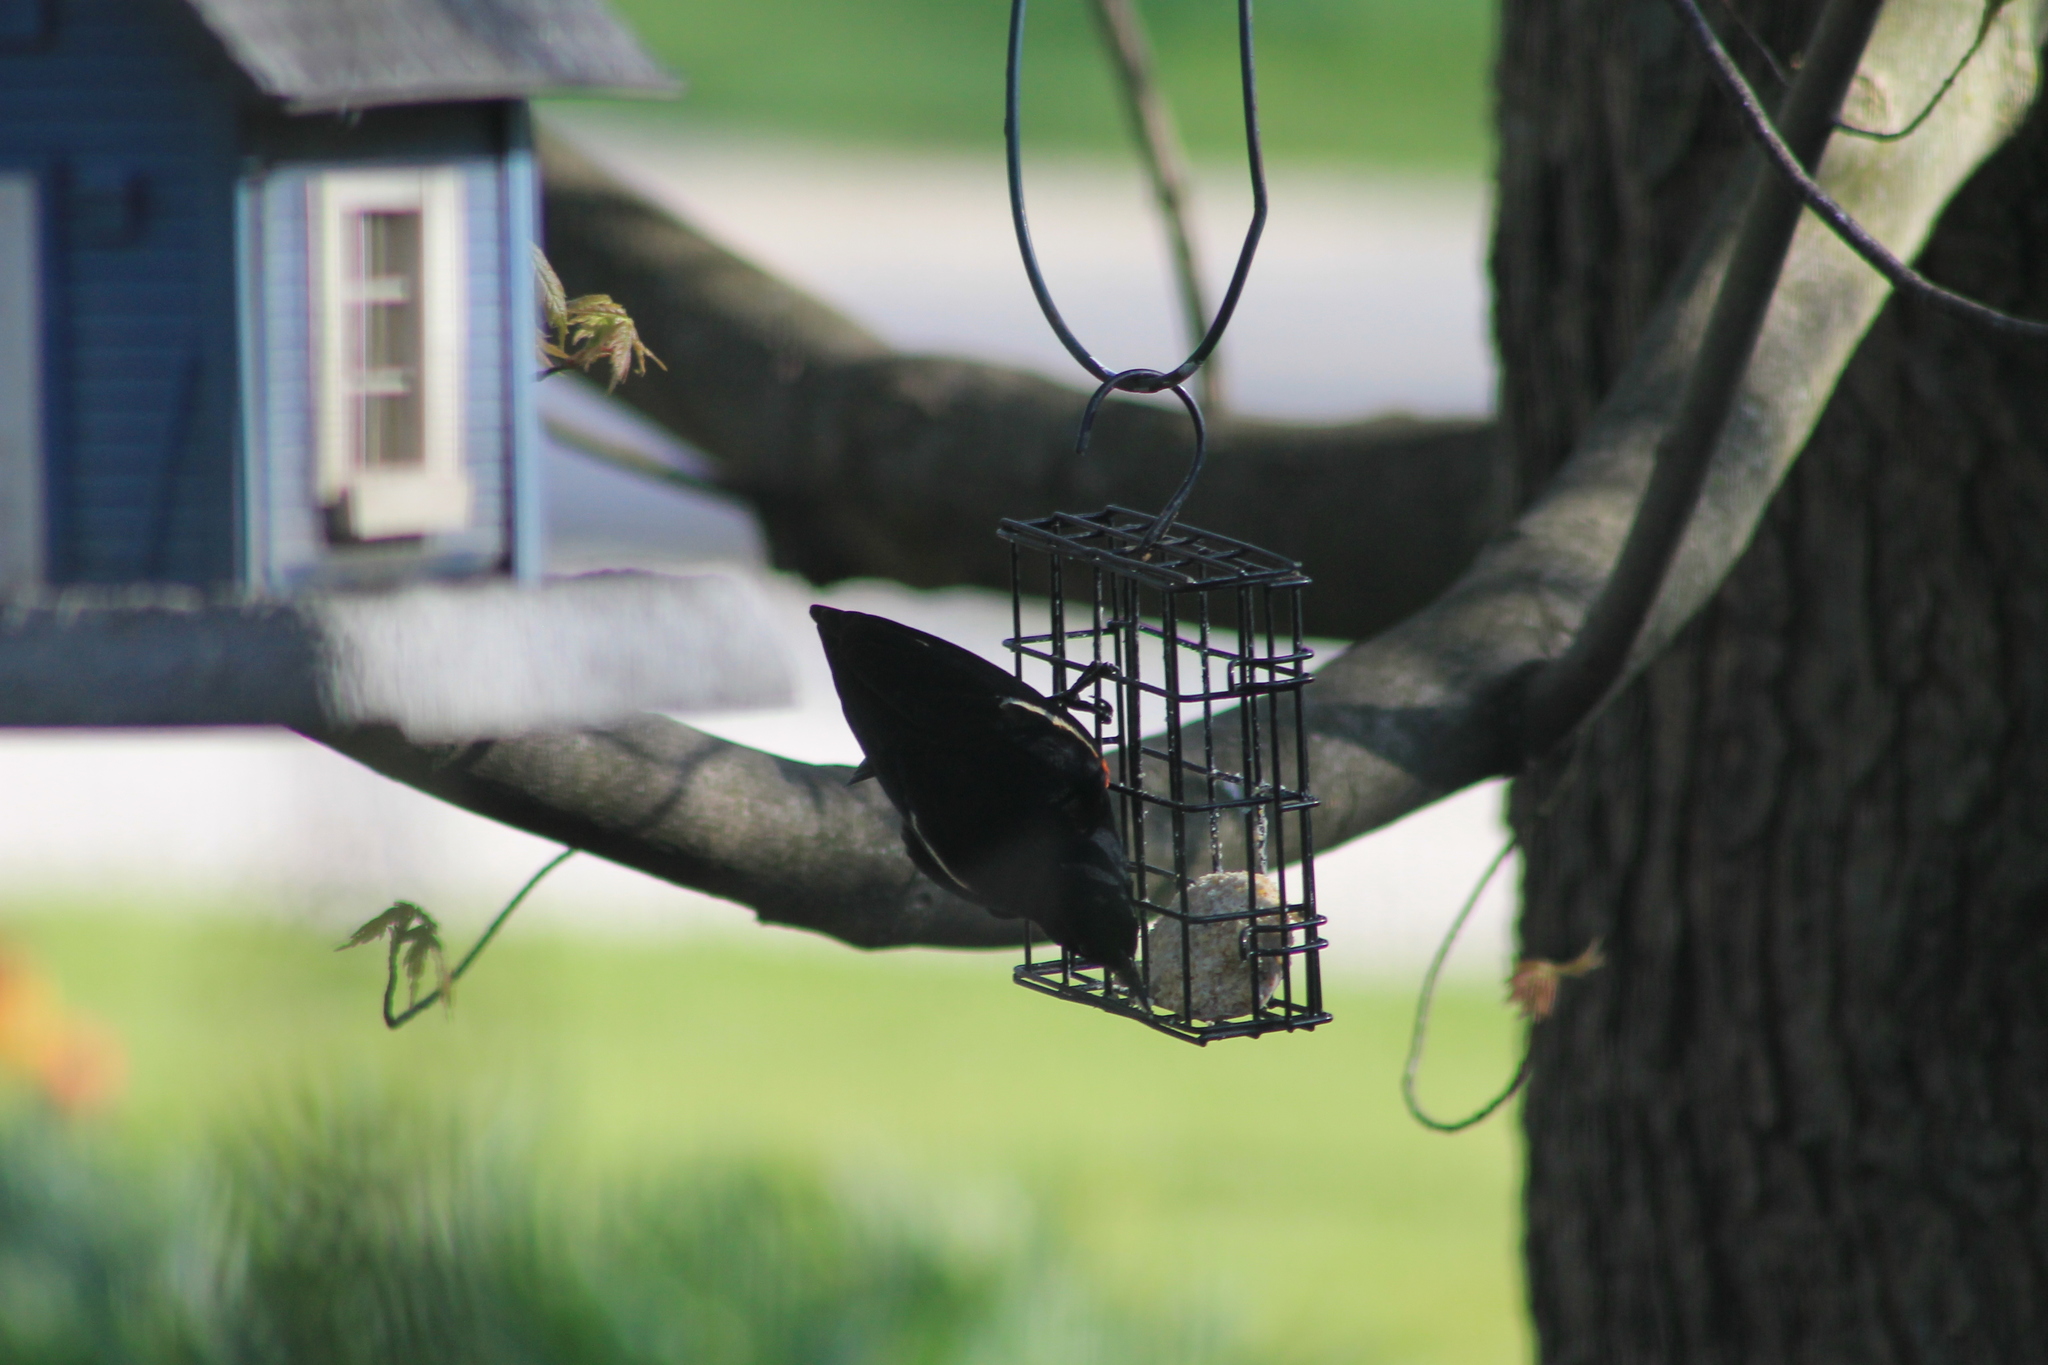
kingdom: Animalia
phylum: Chordata
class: Aves
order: Passeriformes
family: Icteridae
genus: Agelaius
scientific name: Agelaius phoeniceus
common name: Red-winged blackbird
